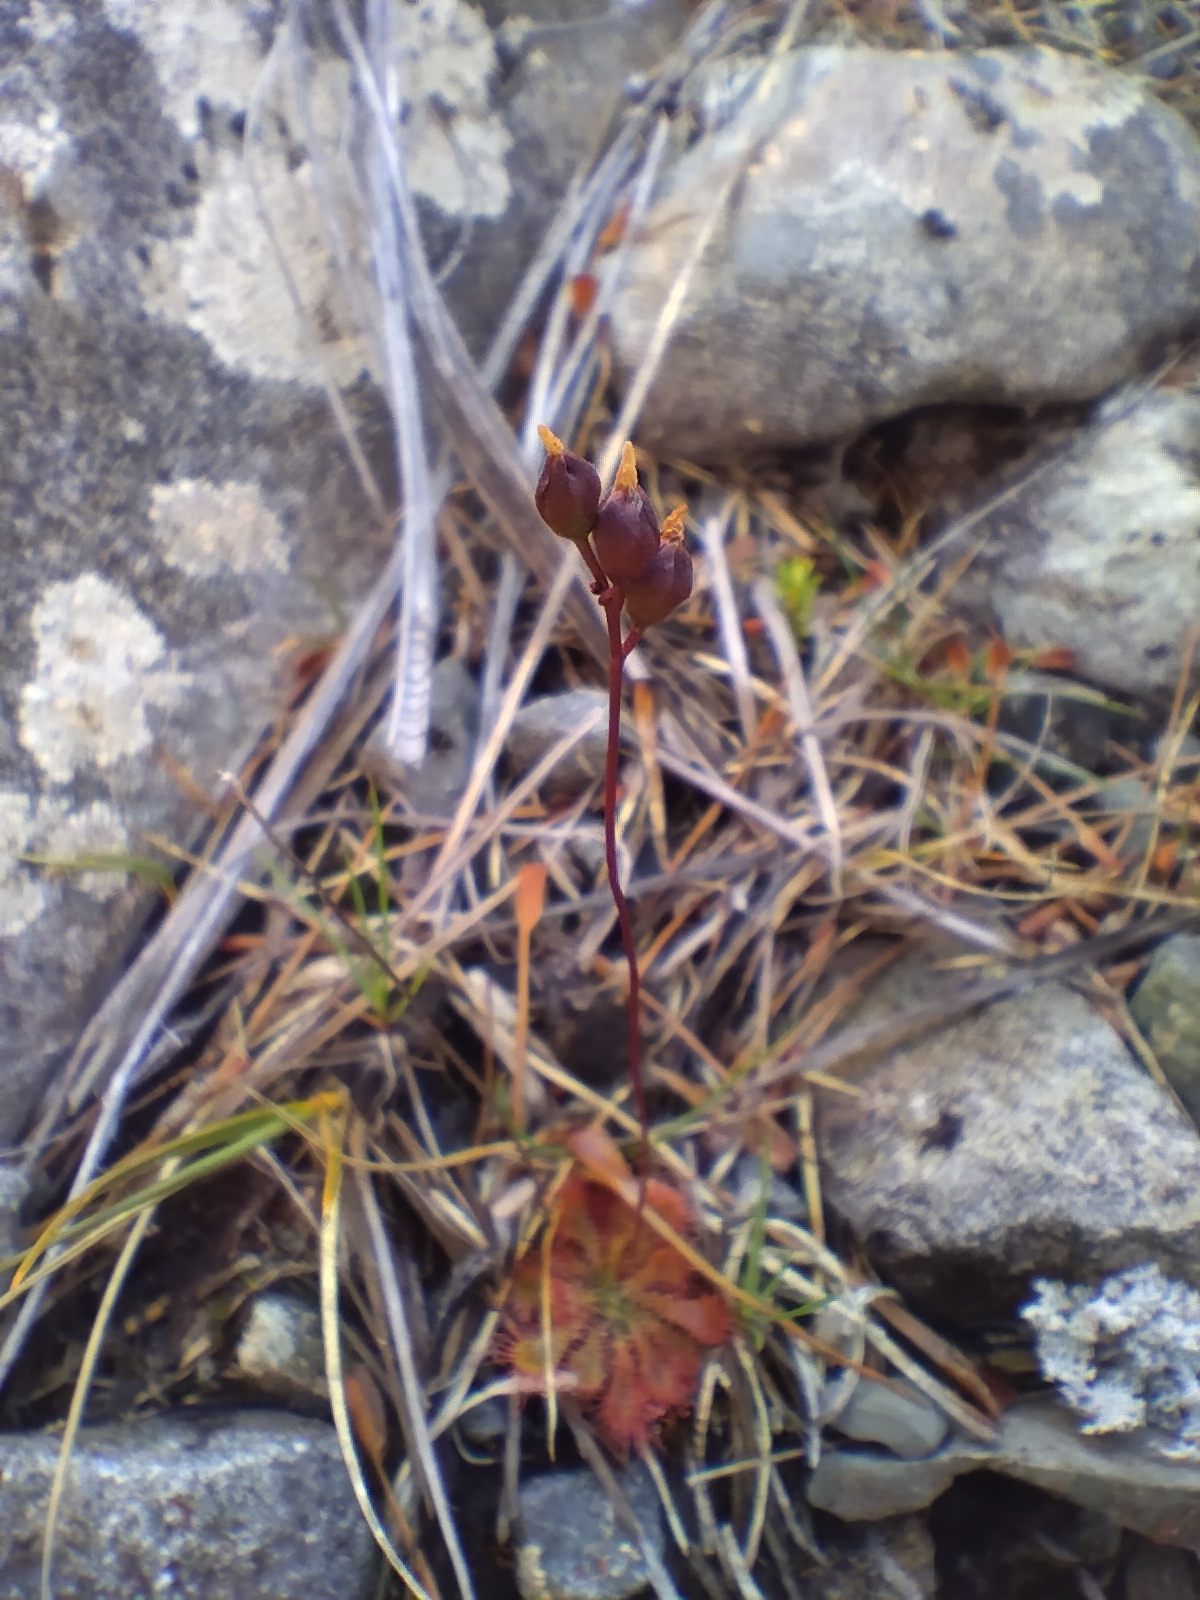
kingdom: Plantae
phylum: Tracheophyta
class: Magnoliopsida
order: Caryophyllales
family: Droseraceae
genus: Drosera
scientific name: Drosera spatulata
